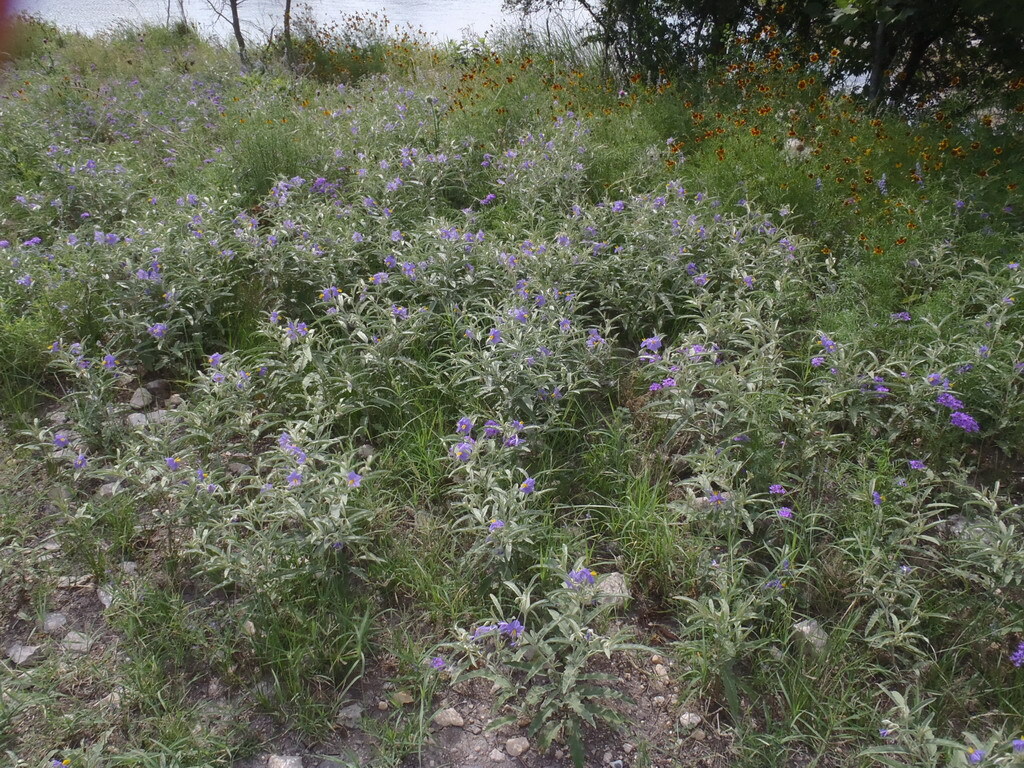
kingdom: Plantae
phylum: Tracheophyta
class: Magnoliopsida
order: Solanales
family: Solanaceae
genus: Solanum
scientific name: Solanum elaeagnifolium
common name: Silverleaf nightshade
